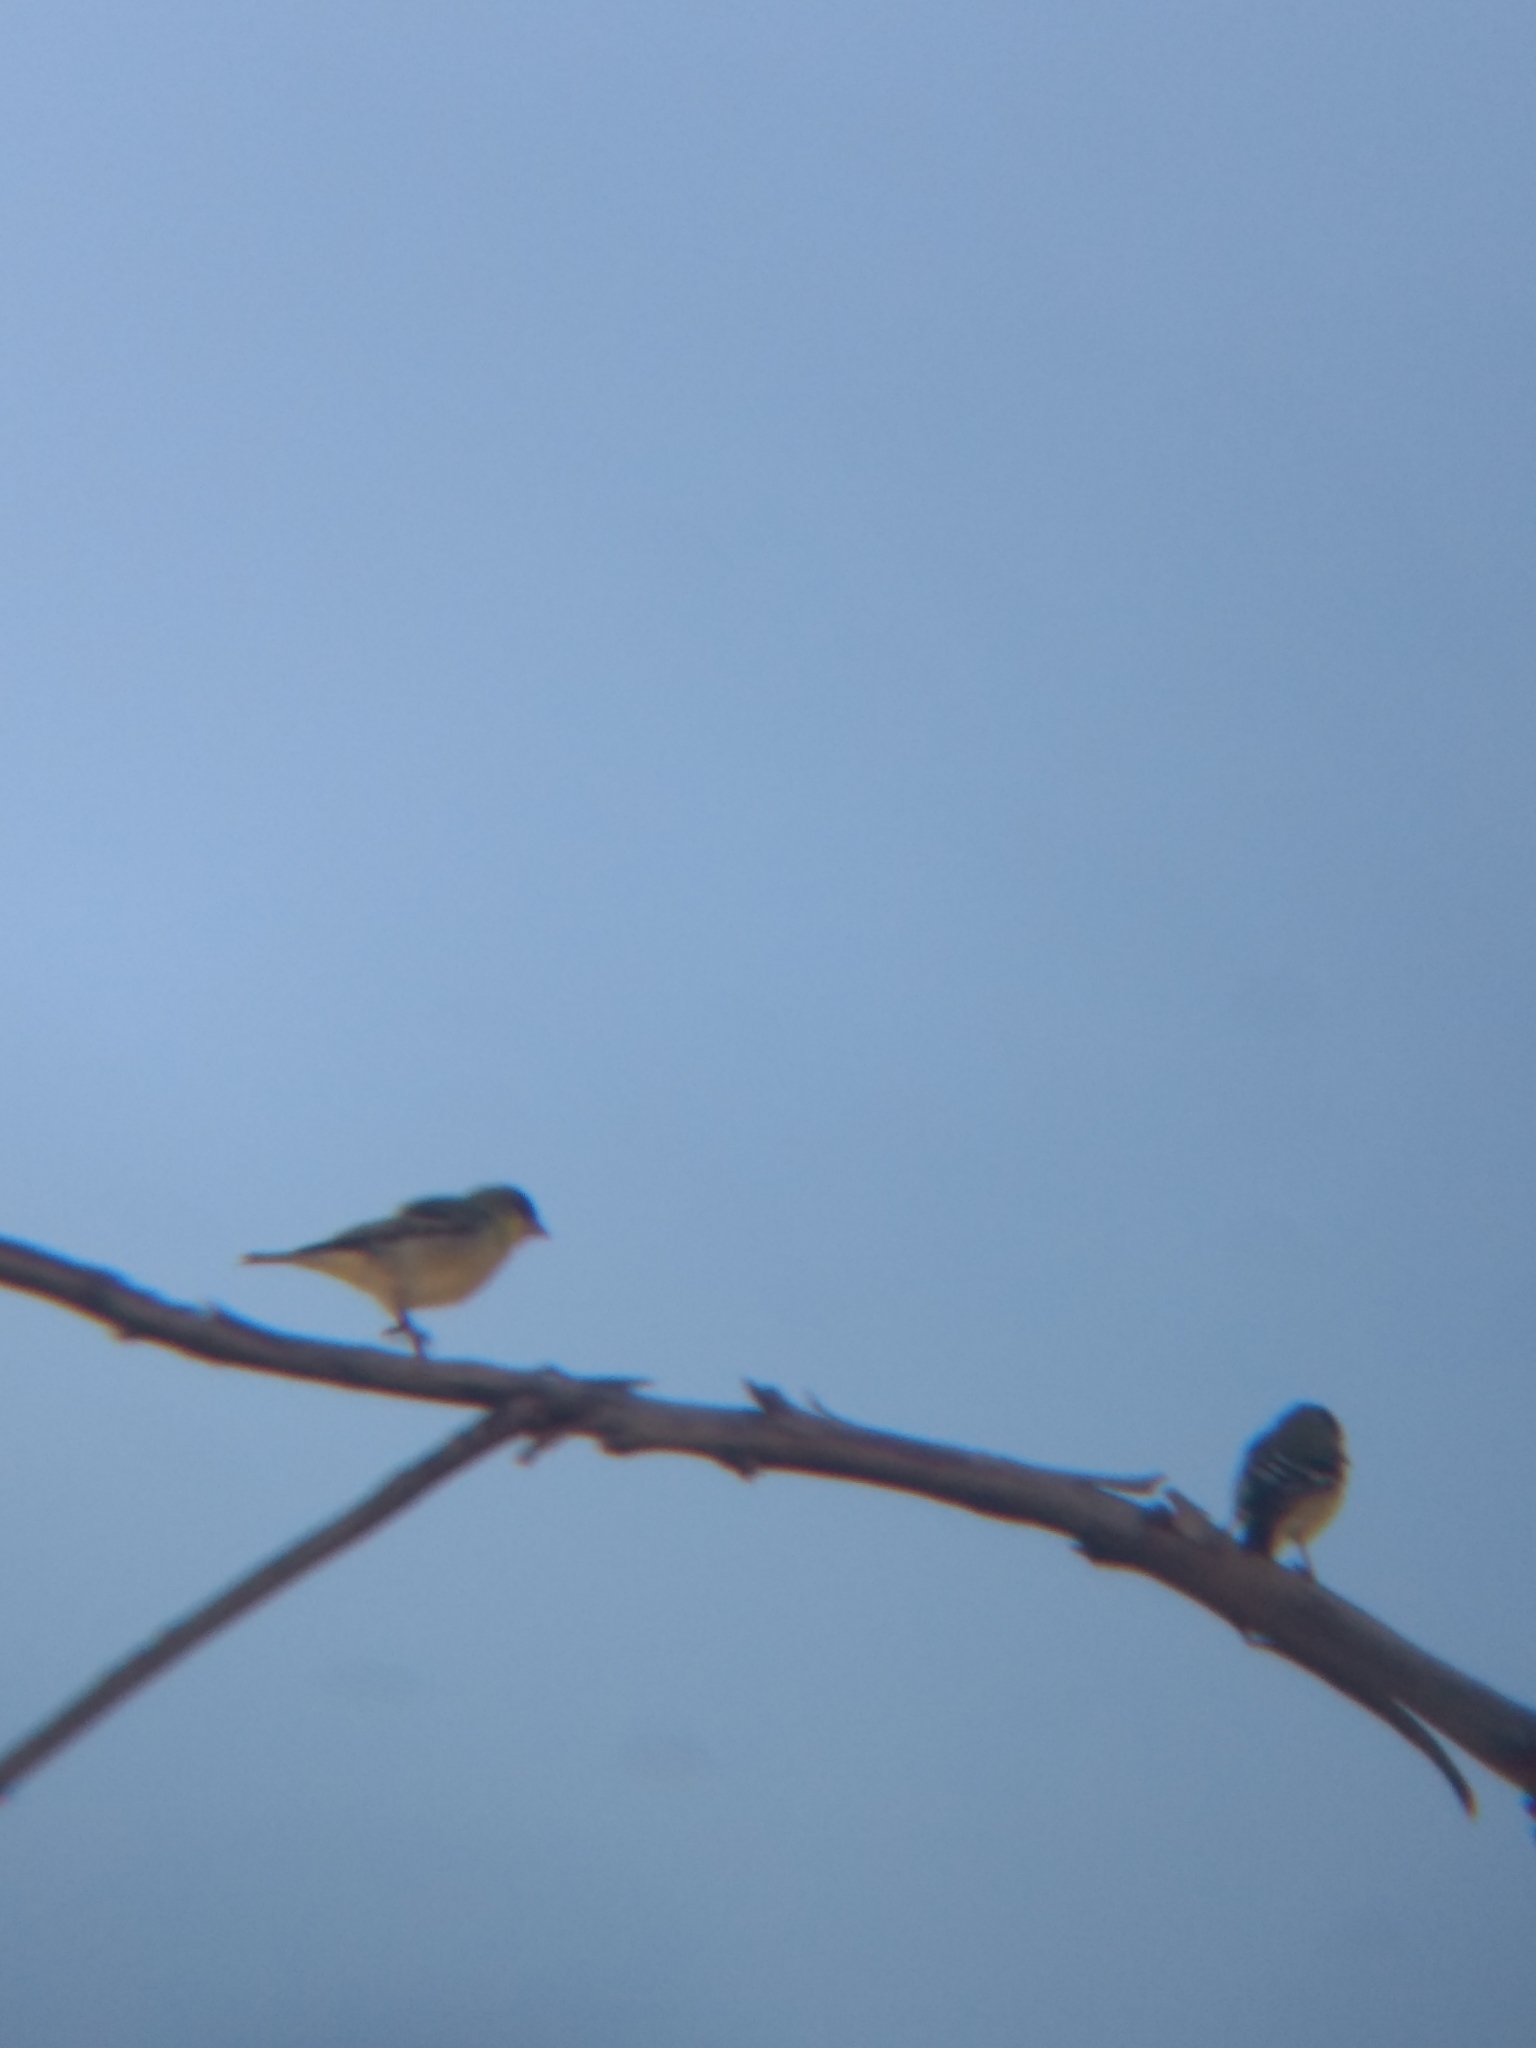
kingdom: Animalia
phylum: Chordata
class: Aves
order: Passeriformes
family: Fringillidae
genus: Spinus
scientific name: Spinus psaltria
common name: Lesser goldfinch
